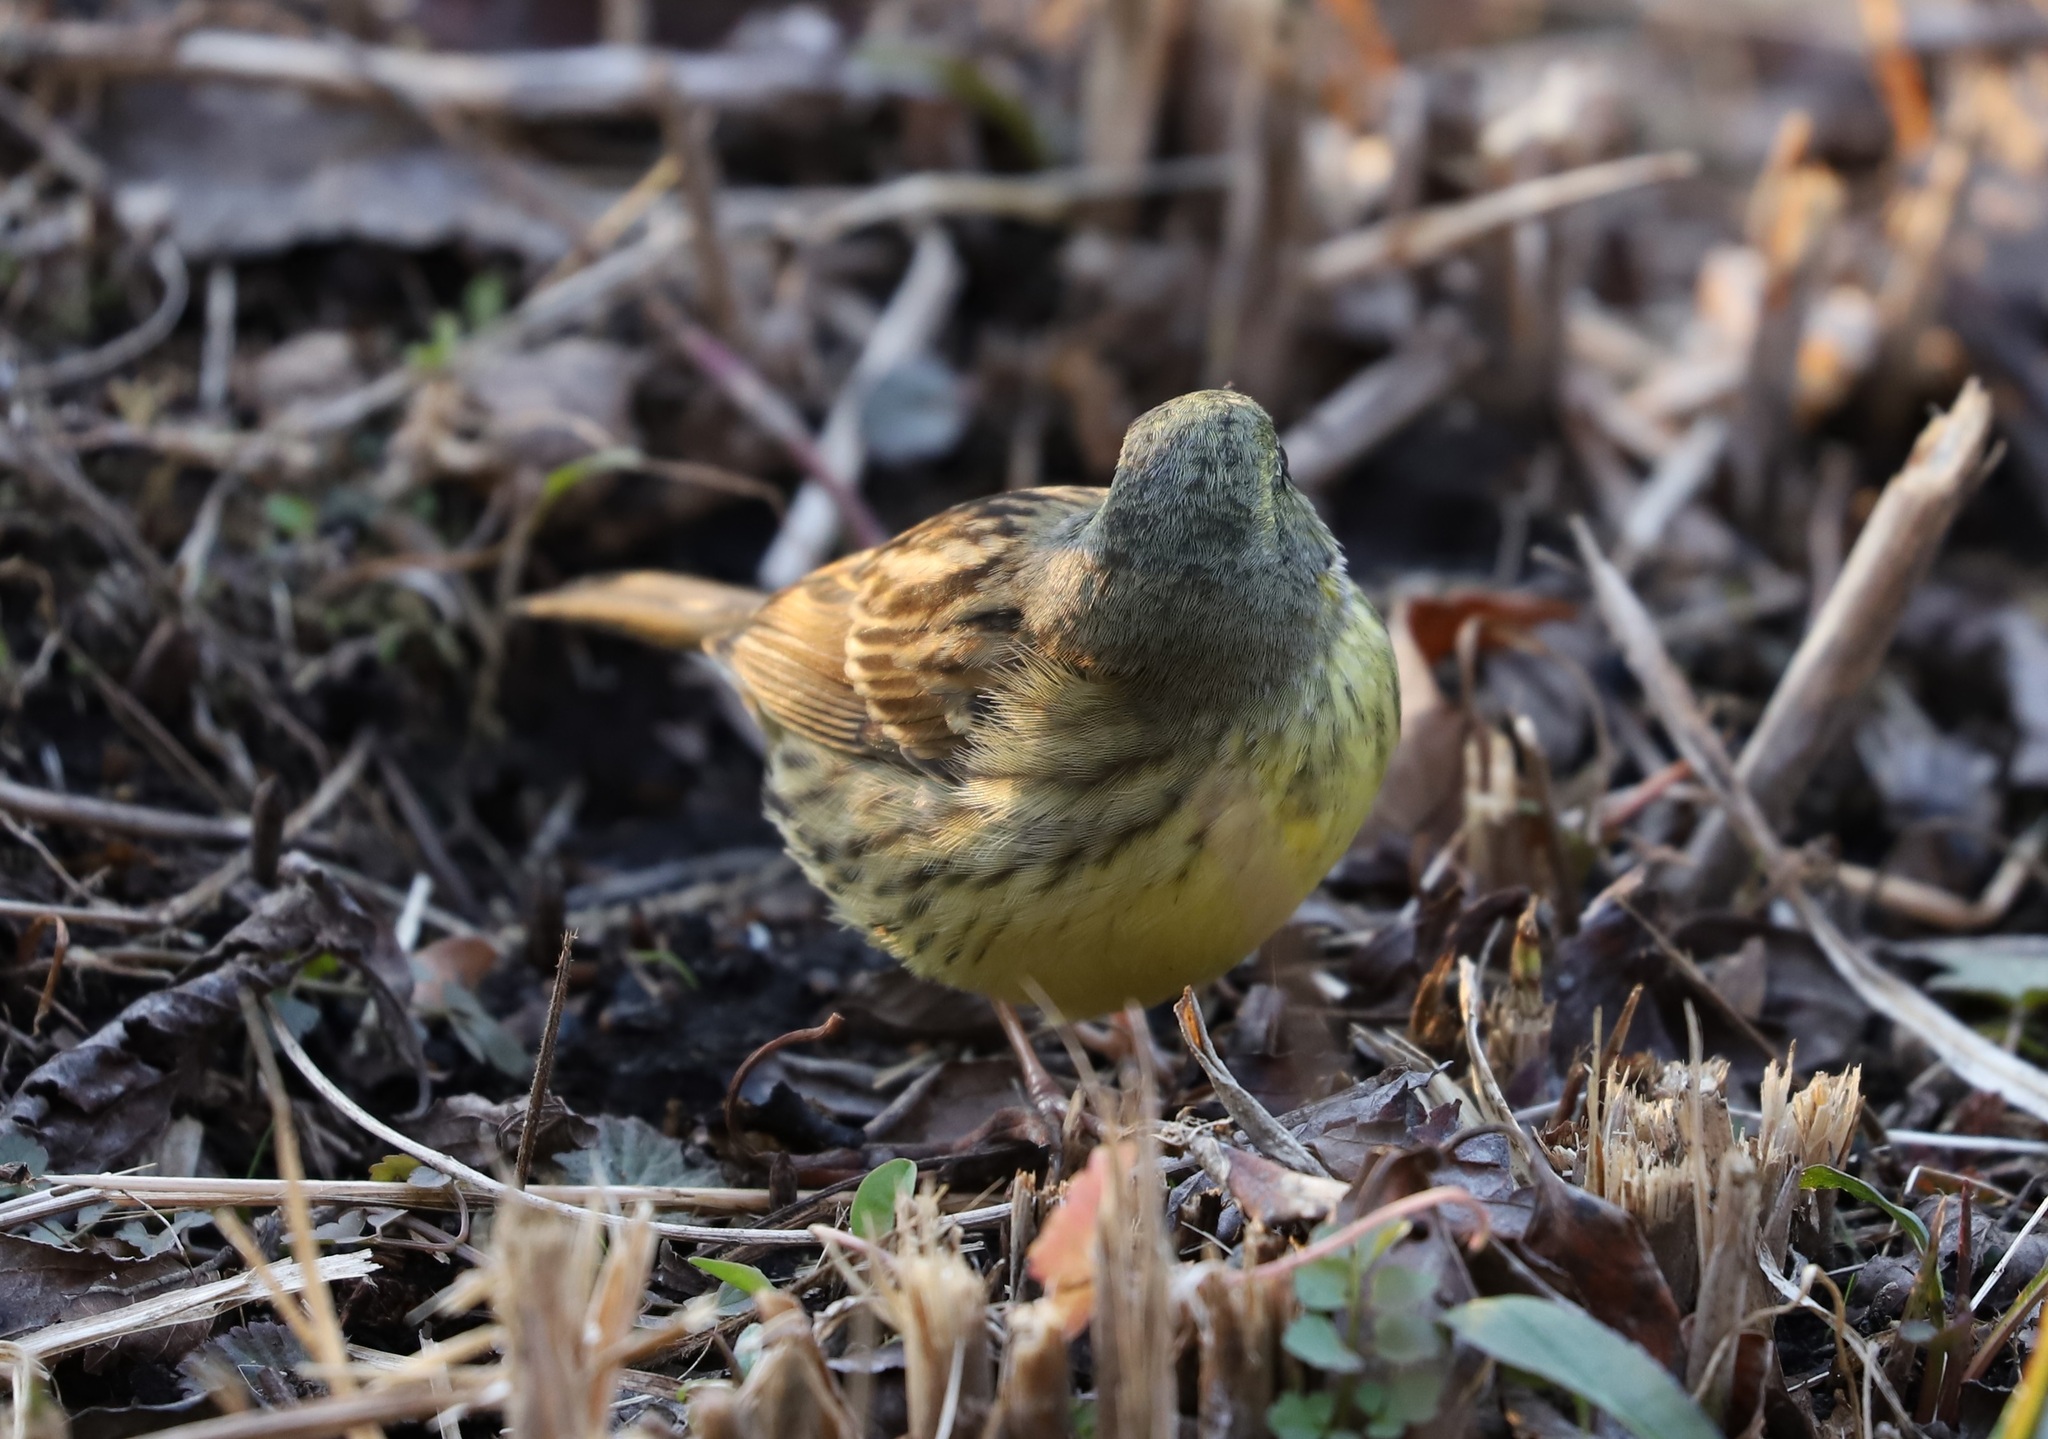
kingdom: Animalia
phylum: Chordata
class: Aves
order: Passeriformes
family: Emberizidae
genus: Emberiza
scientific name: Emberiza personata
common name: Masked bunting
